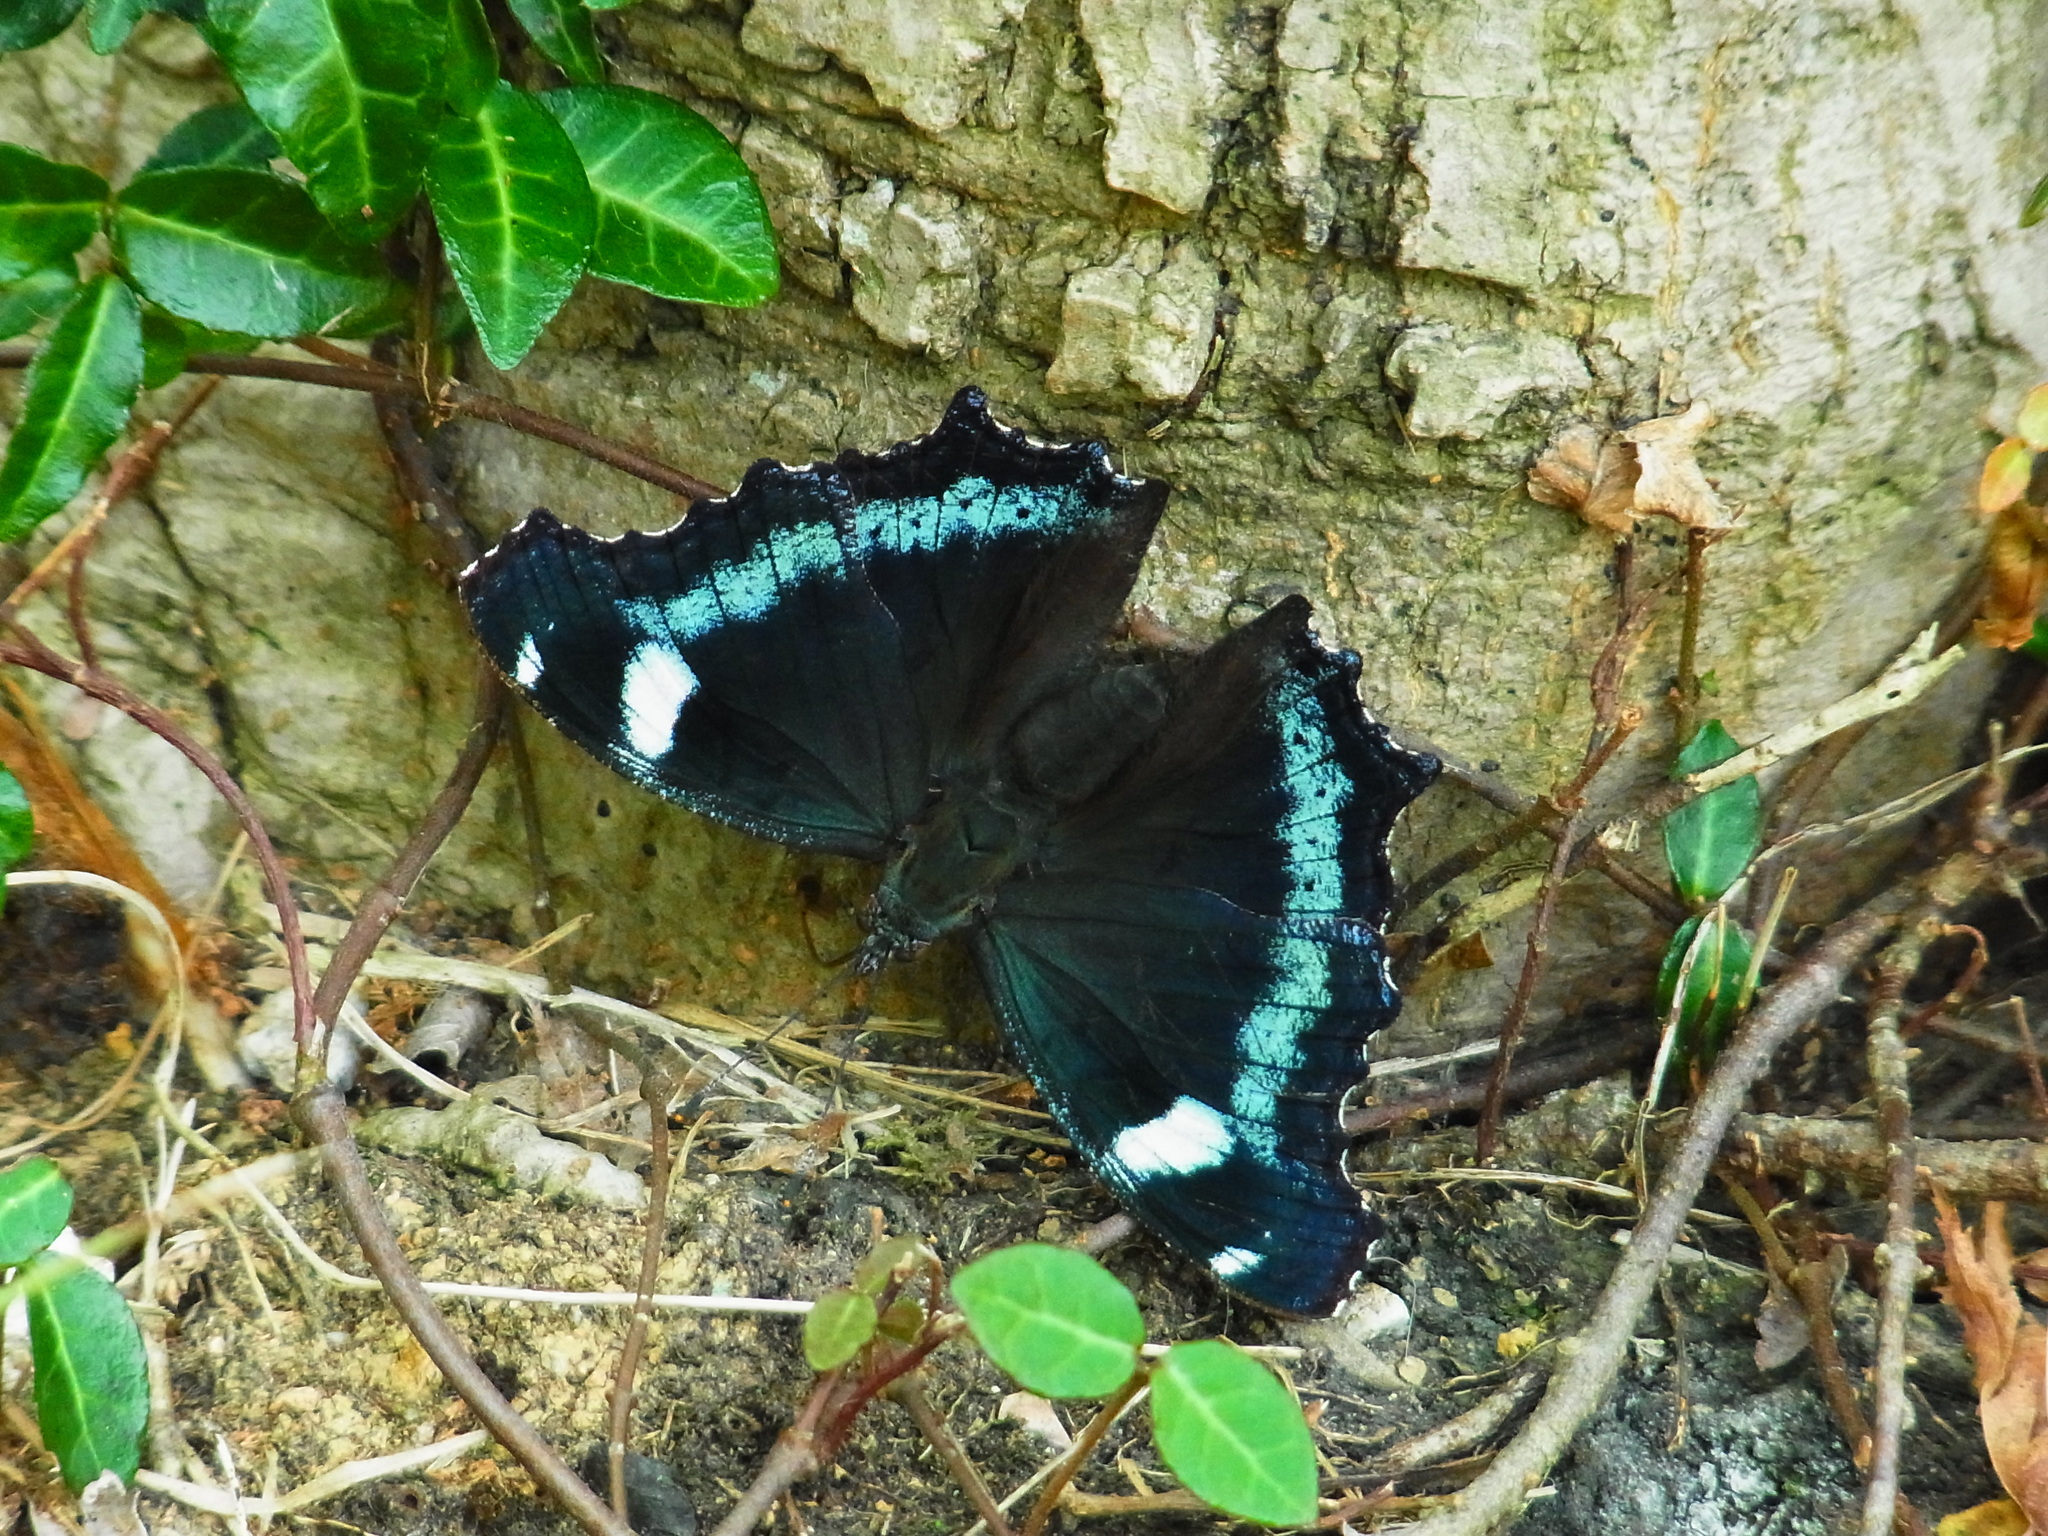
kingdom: Animalia
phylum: Arthropoda
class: Insecta
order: Lepidoptera
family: Nymphalidae
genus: Vanessa
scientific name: Vanessa Kaniska canace
